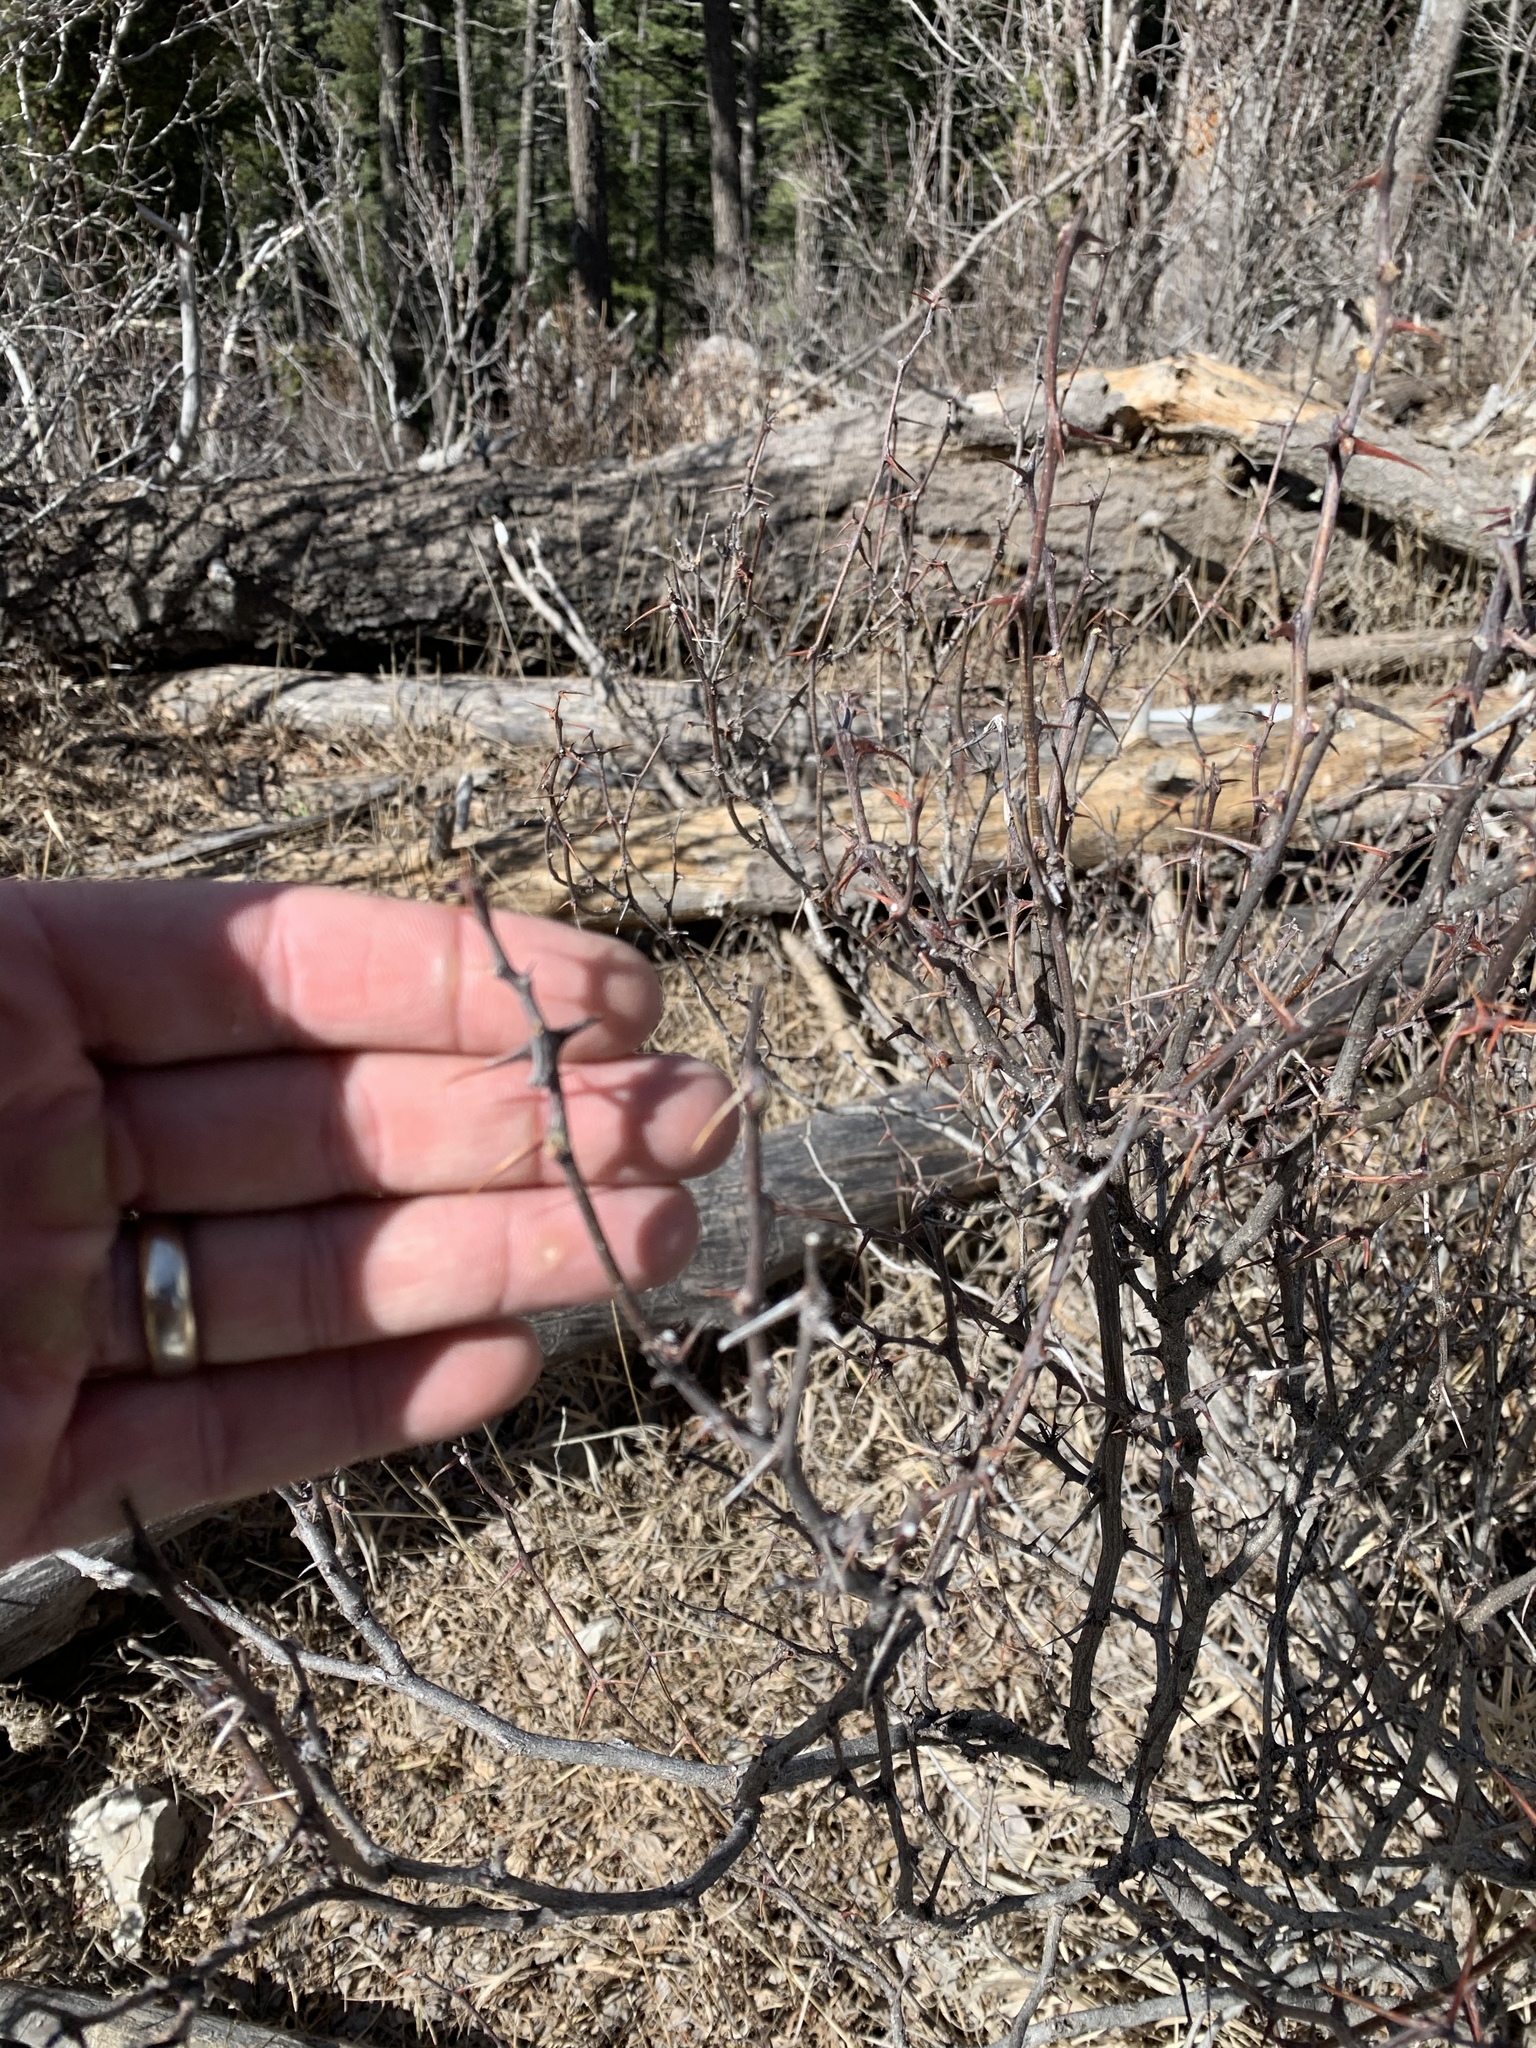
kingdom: Plantae
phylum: Tracheophyta
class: Magnoliopsida
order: Fabales
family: Fabaceae
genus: Robinia
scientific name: Robinia neomexicana
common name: New mexico locust
